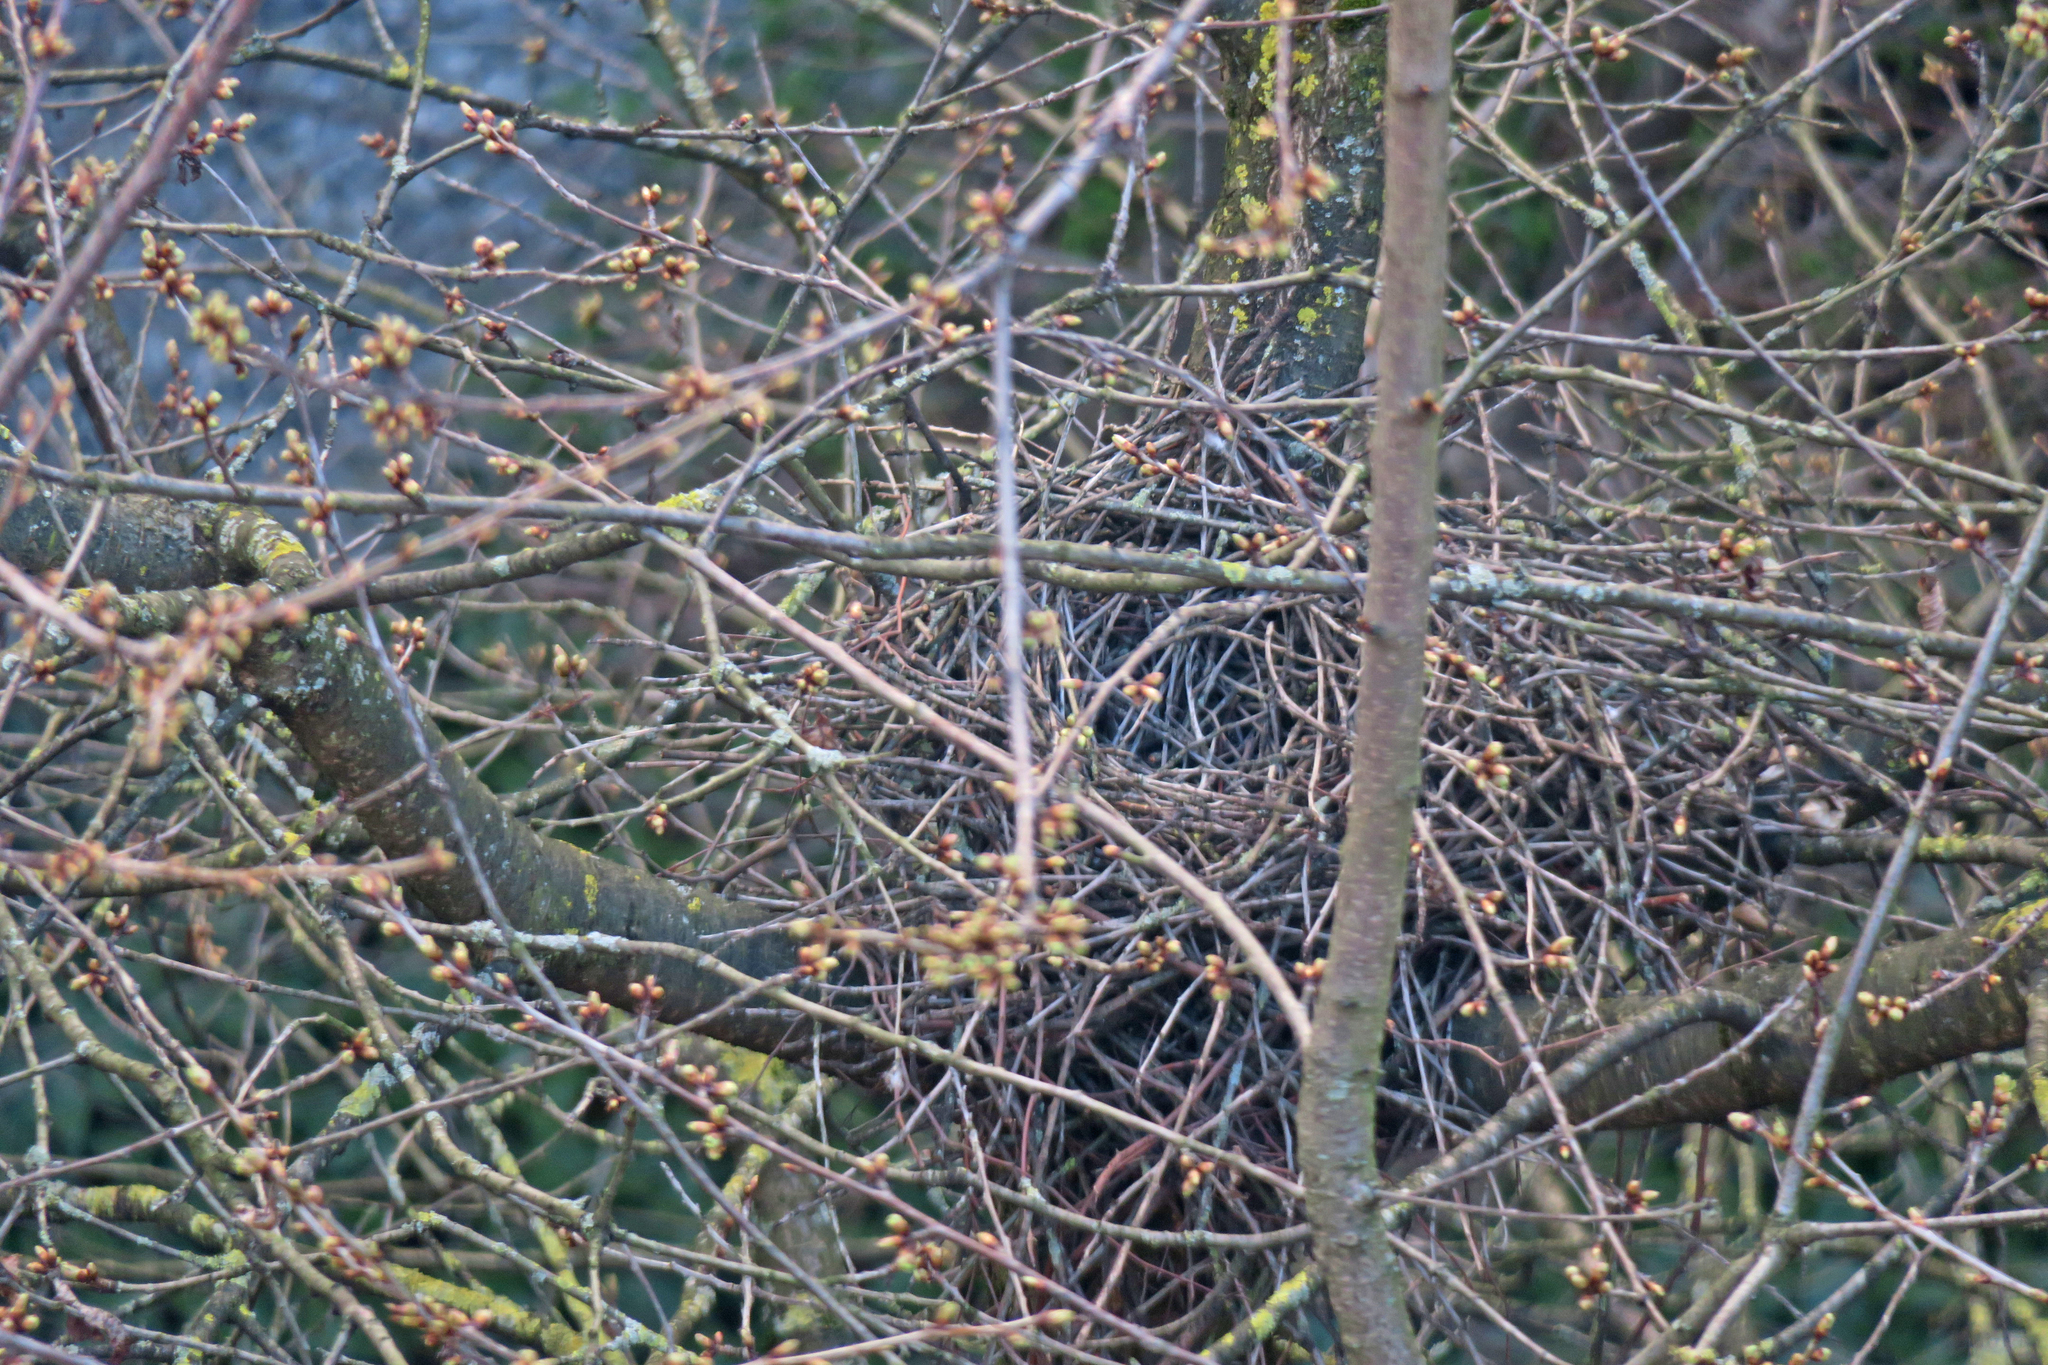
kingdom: Animalia
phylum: Chordata
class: Aves
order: Accipitriformes
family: Accipitridae
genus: Accipiter
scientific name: Accipiter nisus
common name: Eurasian sparrowhawk
